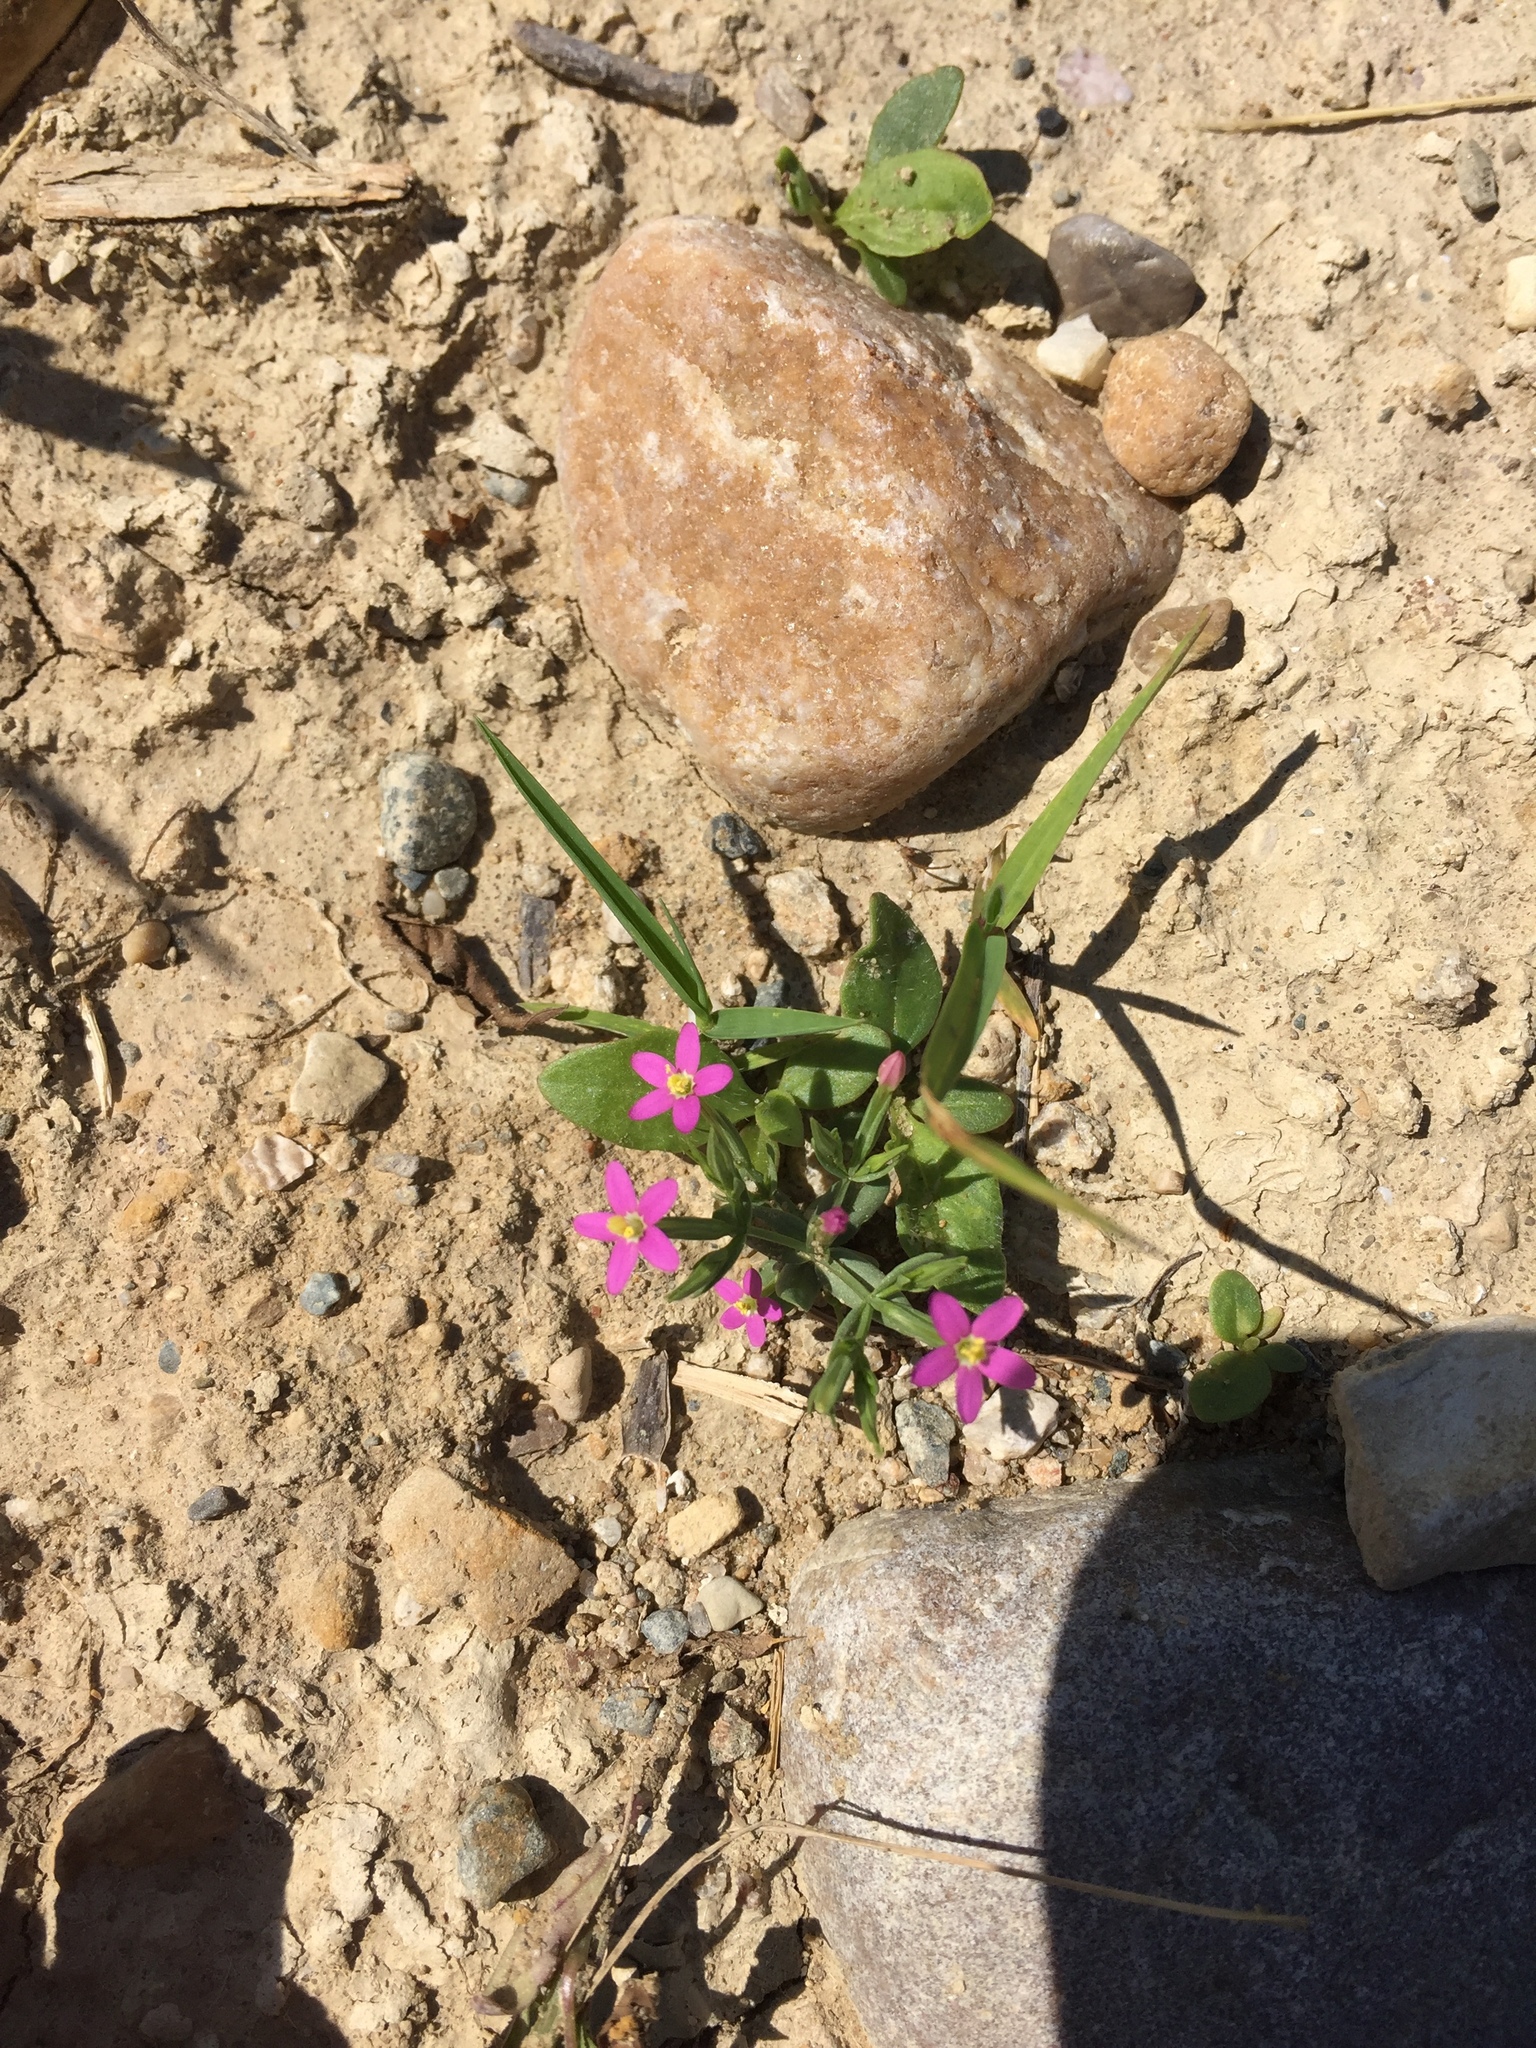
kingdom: Plantae
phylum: Tracheophyta
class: Magnoliopsida
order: Gentianales
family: Gentianaceae
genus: Centaurium
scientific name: Centaurium erythraea
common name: Common centaury
